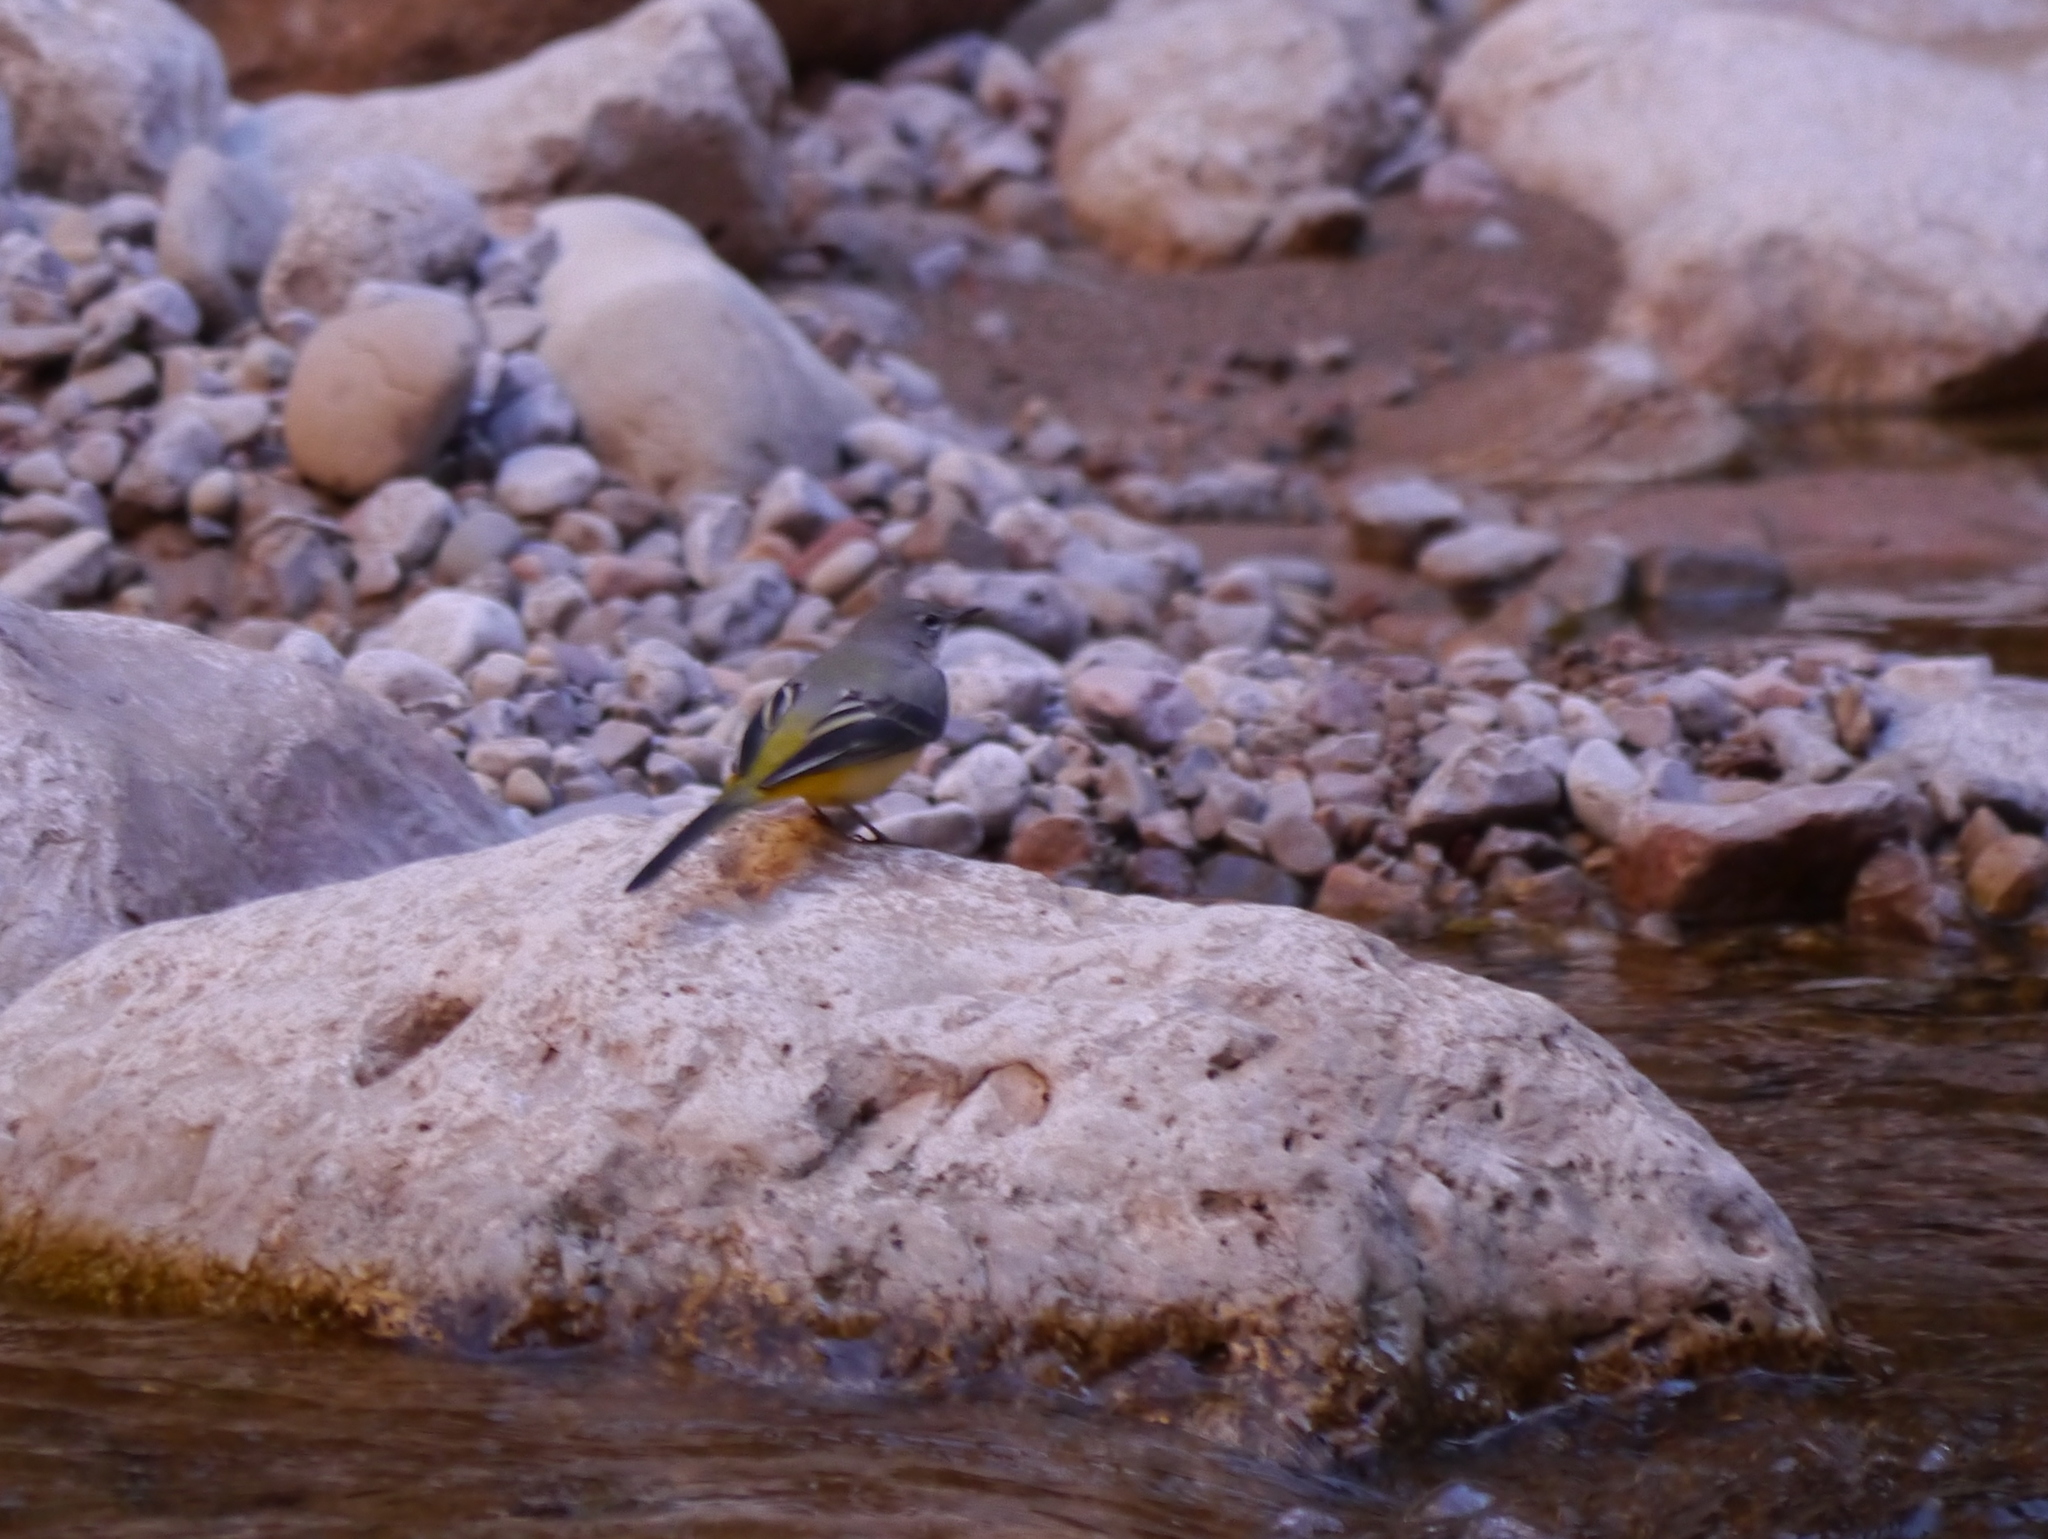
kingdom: Animalia
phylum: Chordata
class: Aves
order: Passeriformes
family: Motacillidae
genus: Motacilla
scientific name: Motacilla cinerea
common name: Grey wagtail
